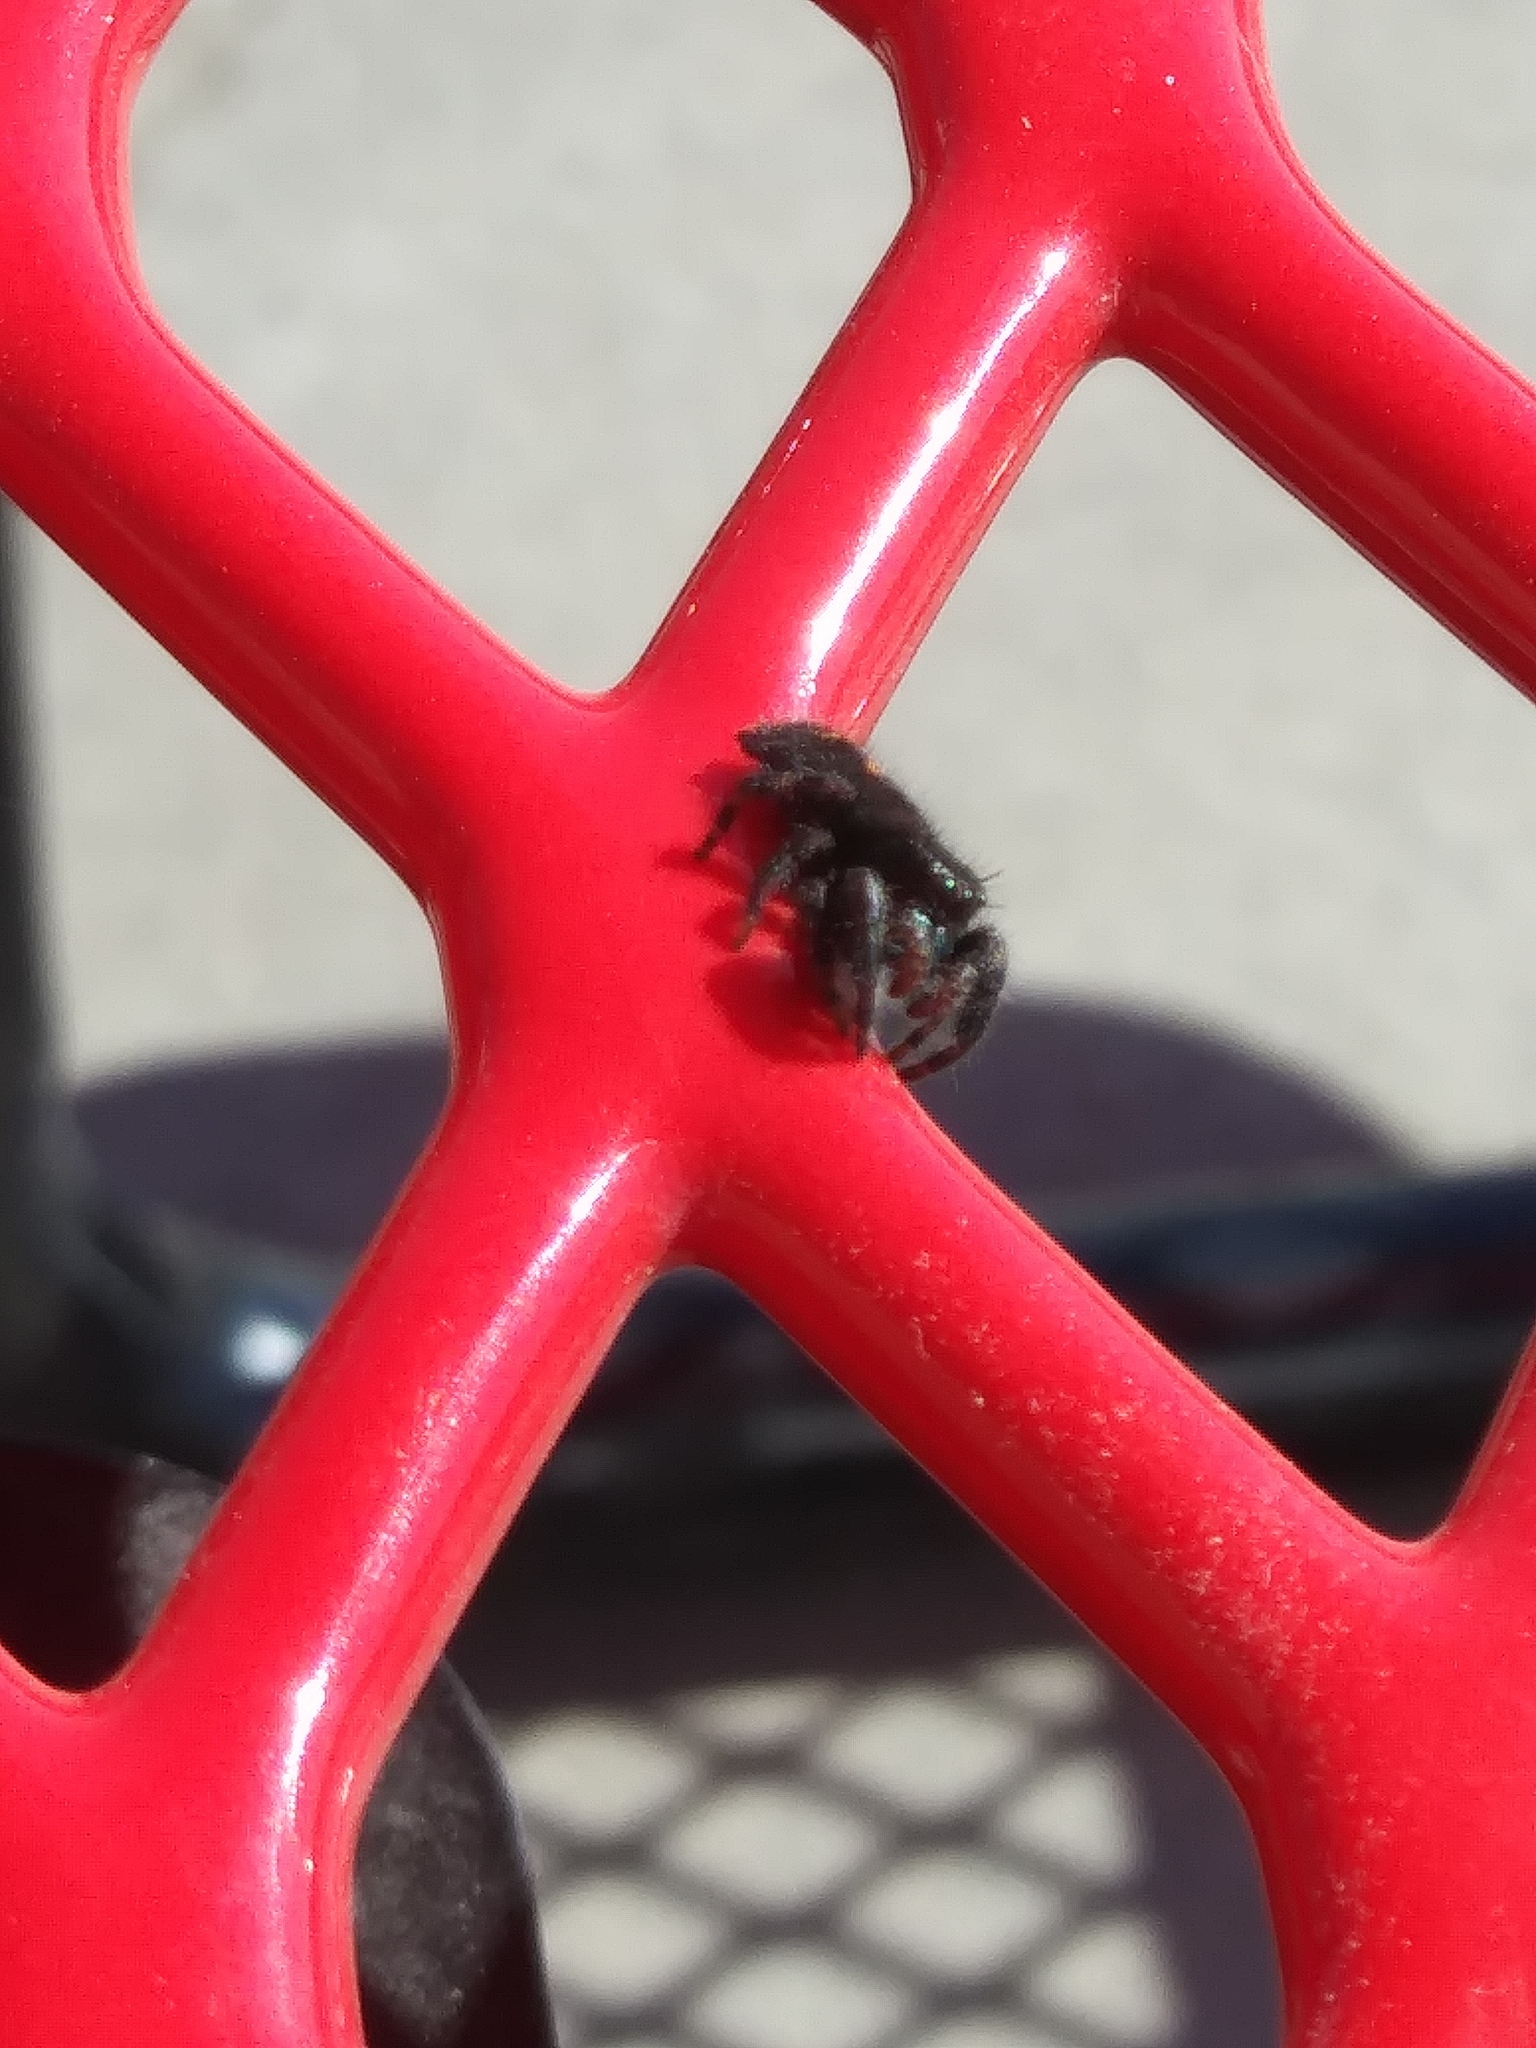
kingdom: Animalia
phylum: Arthropoda
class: Arachnida
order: Araneae
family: Salticidae
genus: Phidippus
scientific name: Phidippus audax
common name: Bold jumper
